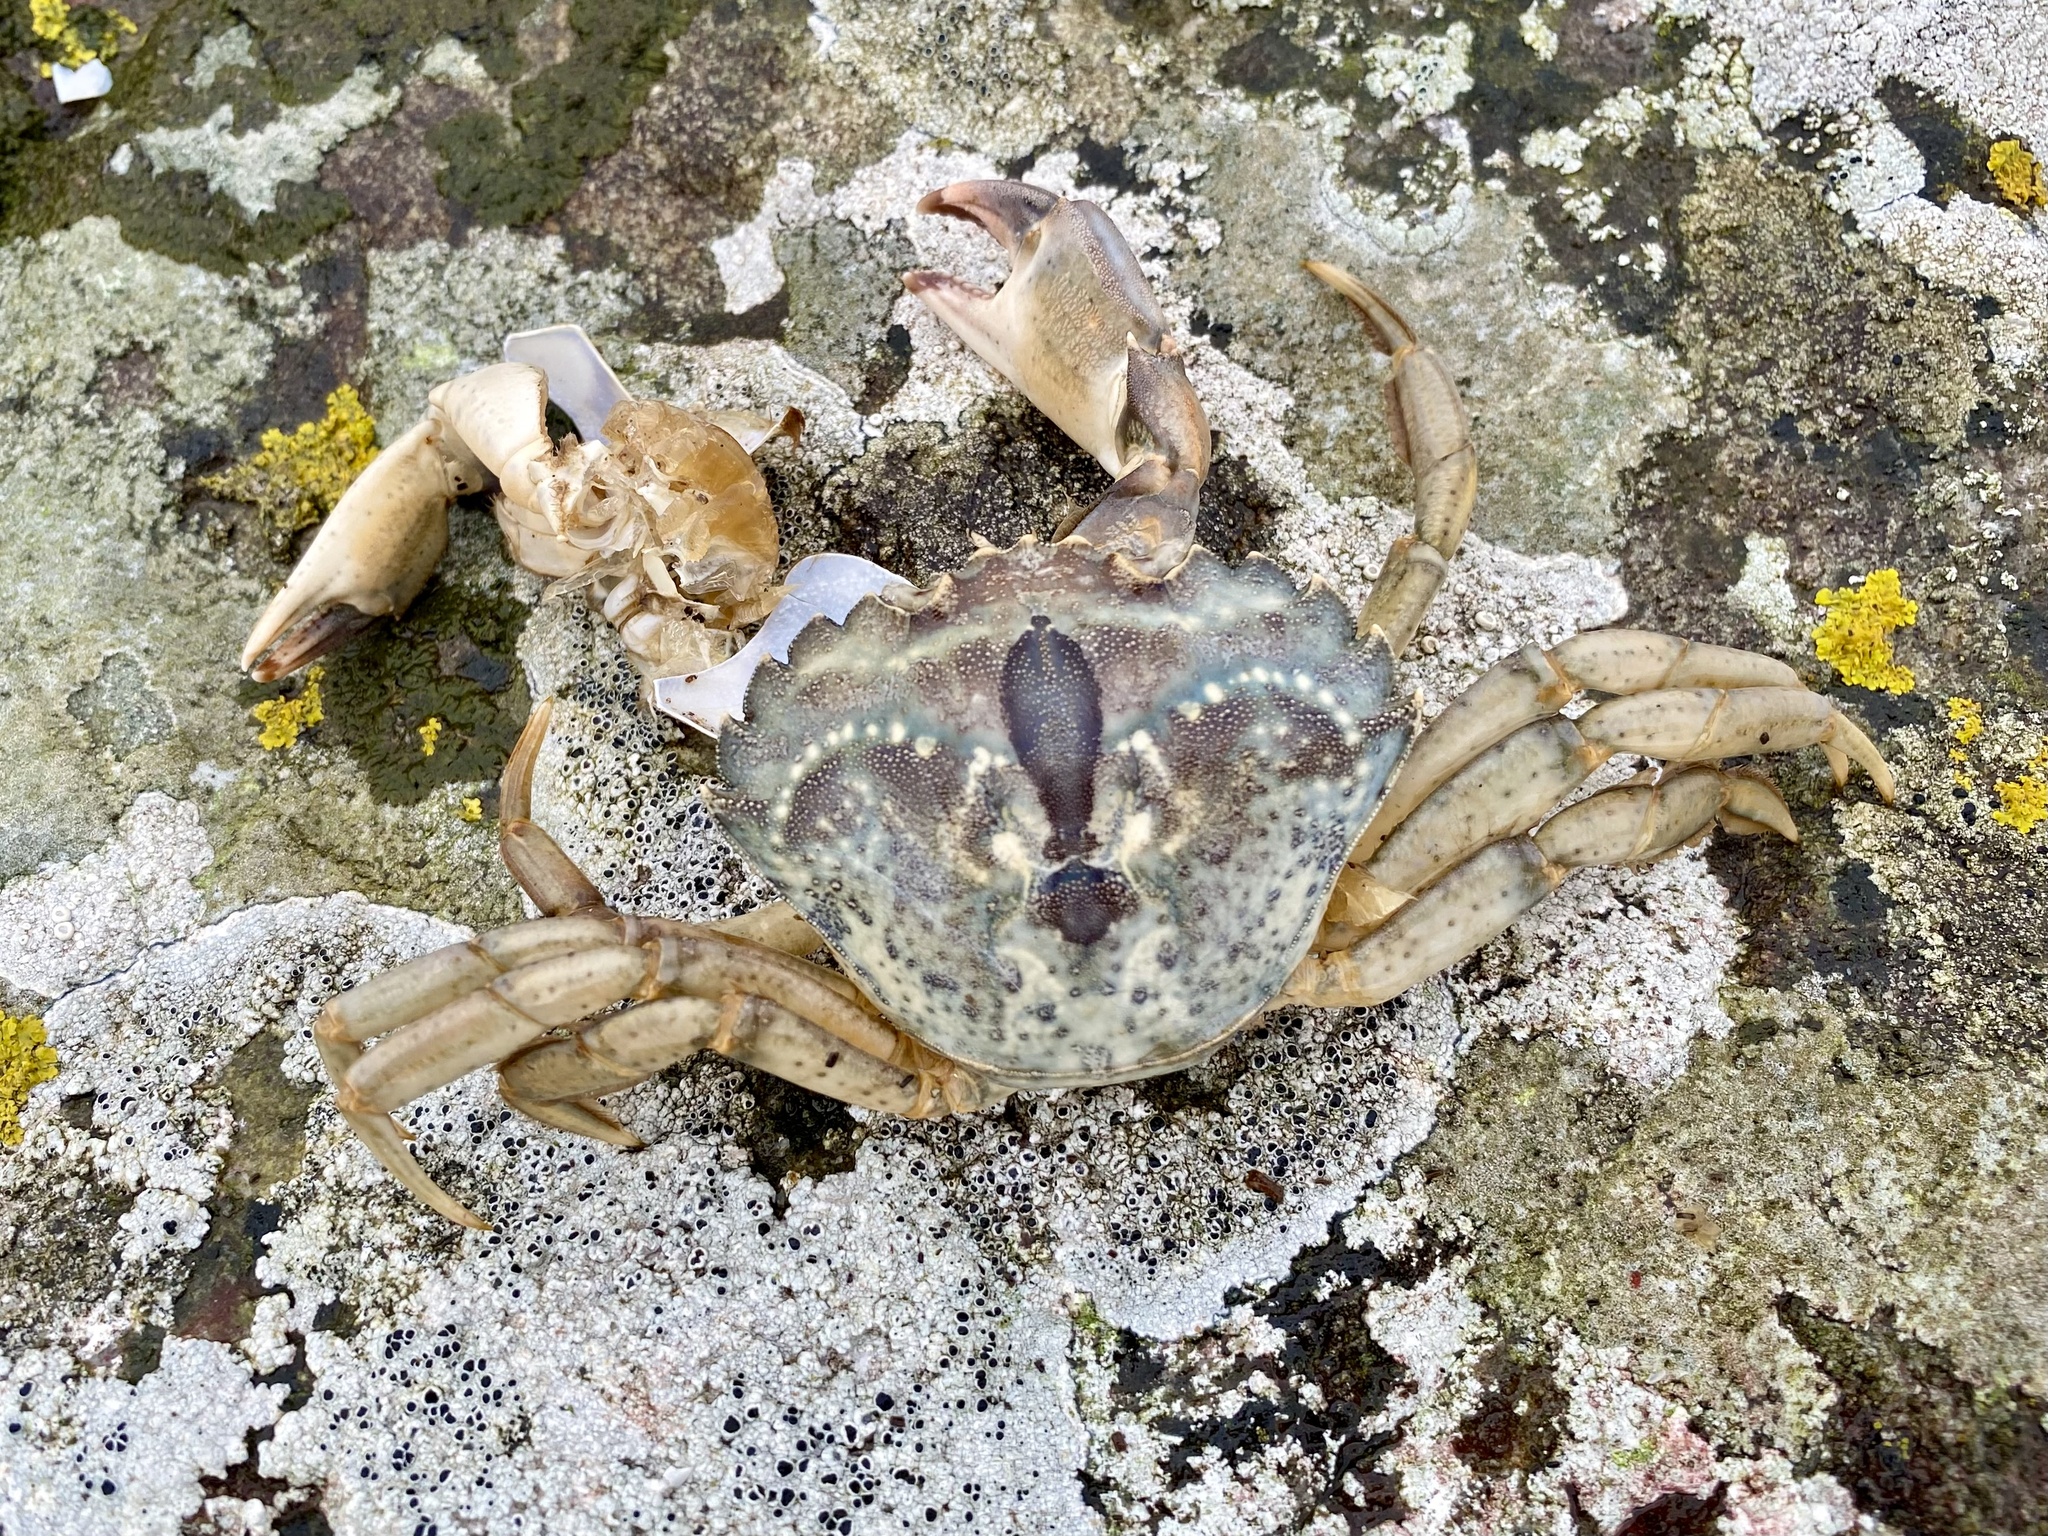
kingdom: Animalia
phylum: Arthropoda
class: Malacostraca
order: Decapoda
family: Carcinidae
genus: Carcinus
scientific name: Carcinus maenas
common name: European green crab
